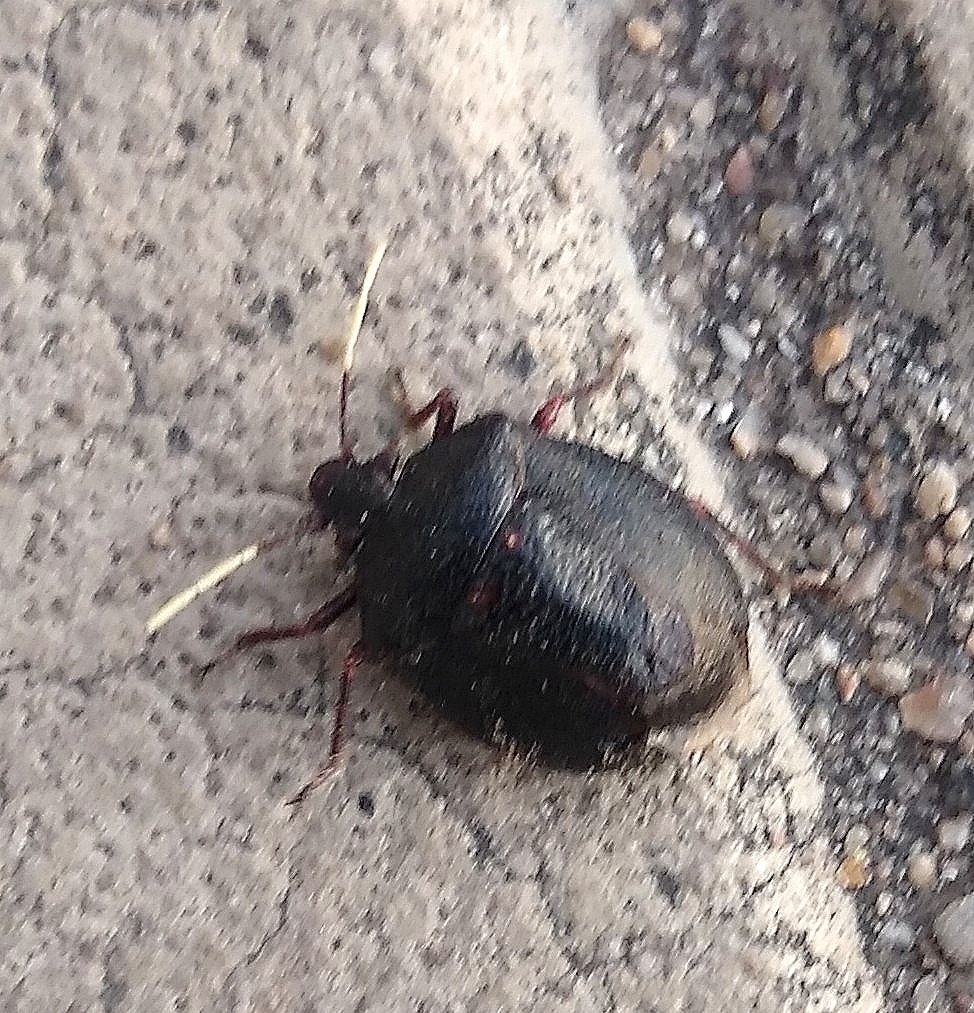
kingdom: Animalia
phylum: Arthropoda
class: Insecta
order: Hemiptera
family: Pentatomidae
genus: Antiteuchus
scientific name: Antiteuchus mixtus
